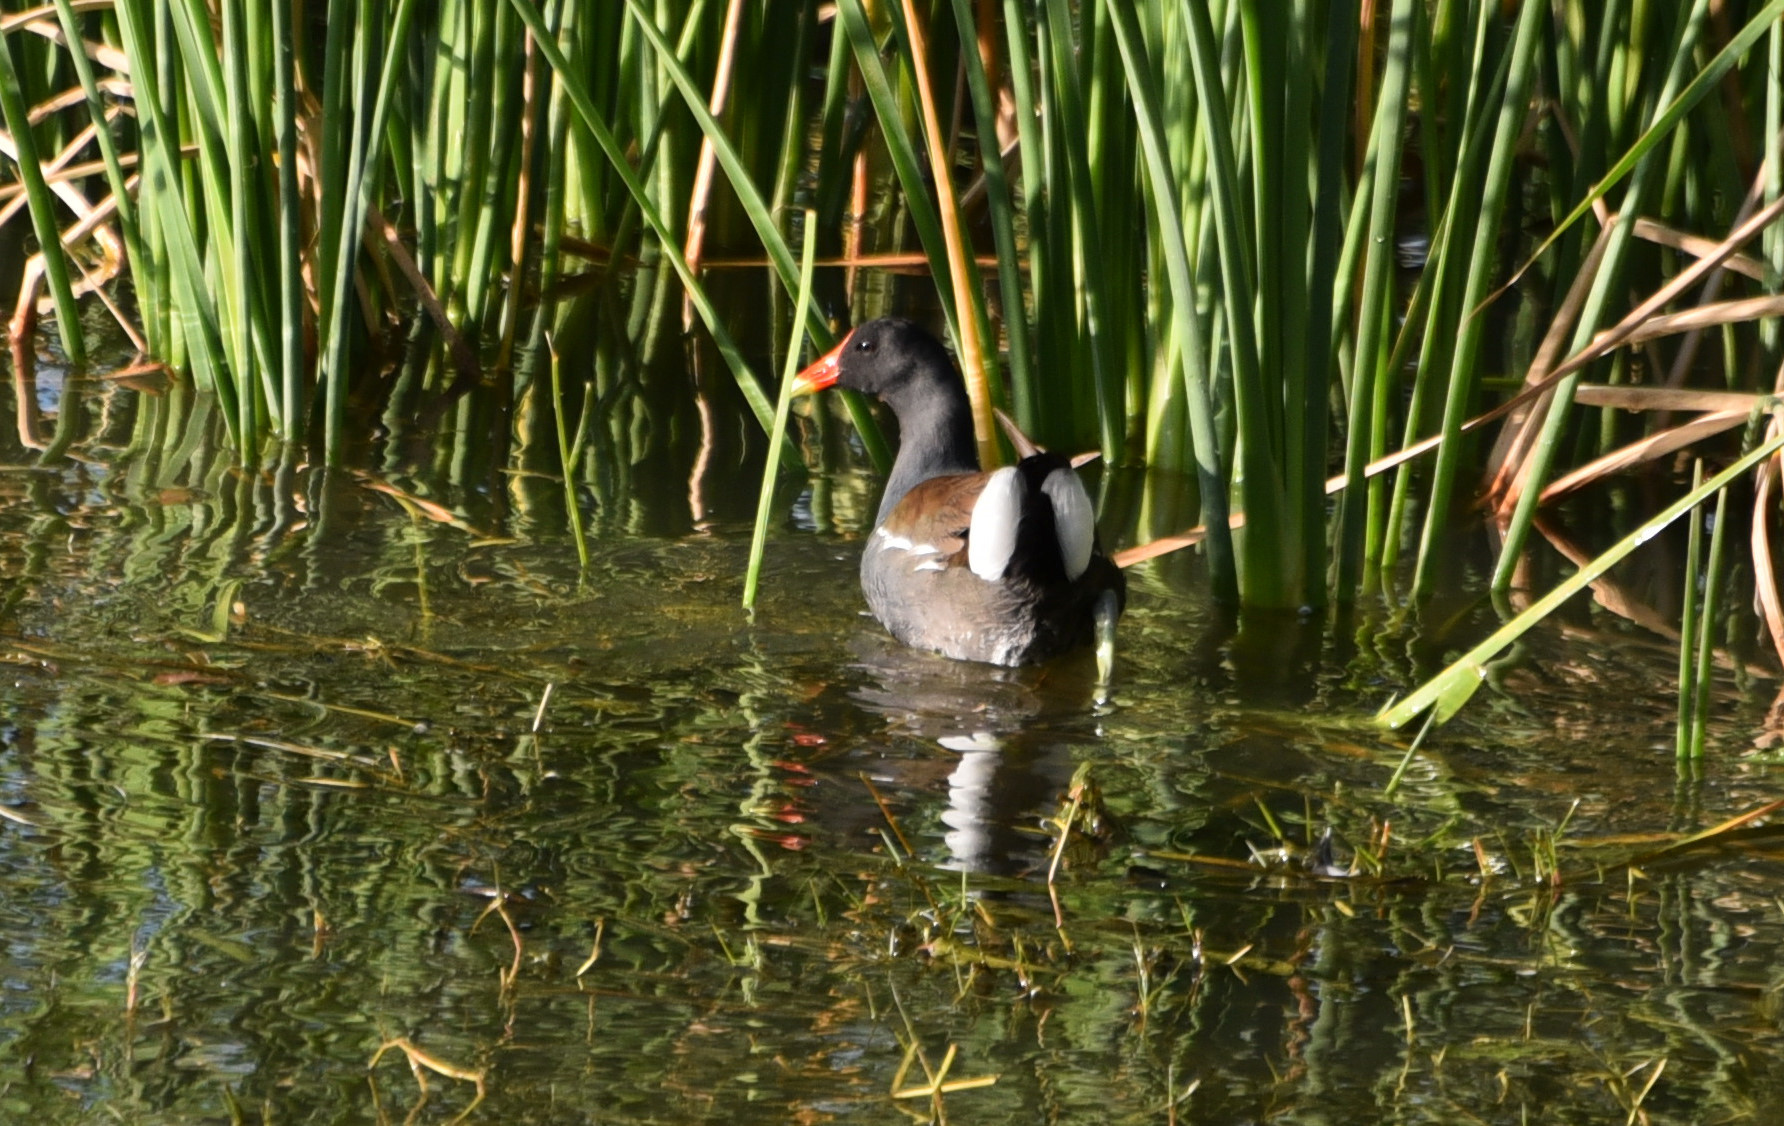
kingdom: Animalia
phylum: Chordata
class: Aves
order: Gruiformes
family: Rallidae
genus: Gallinula
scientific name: Gallinula chloropus
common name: Common moorhen
